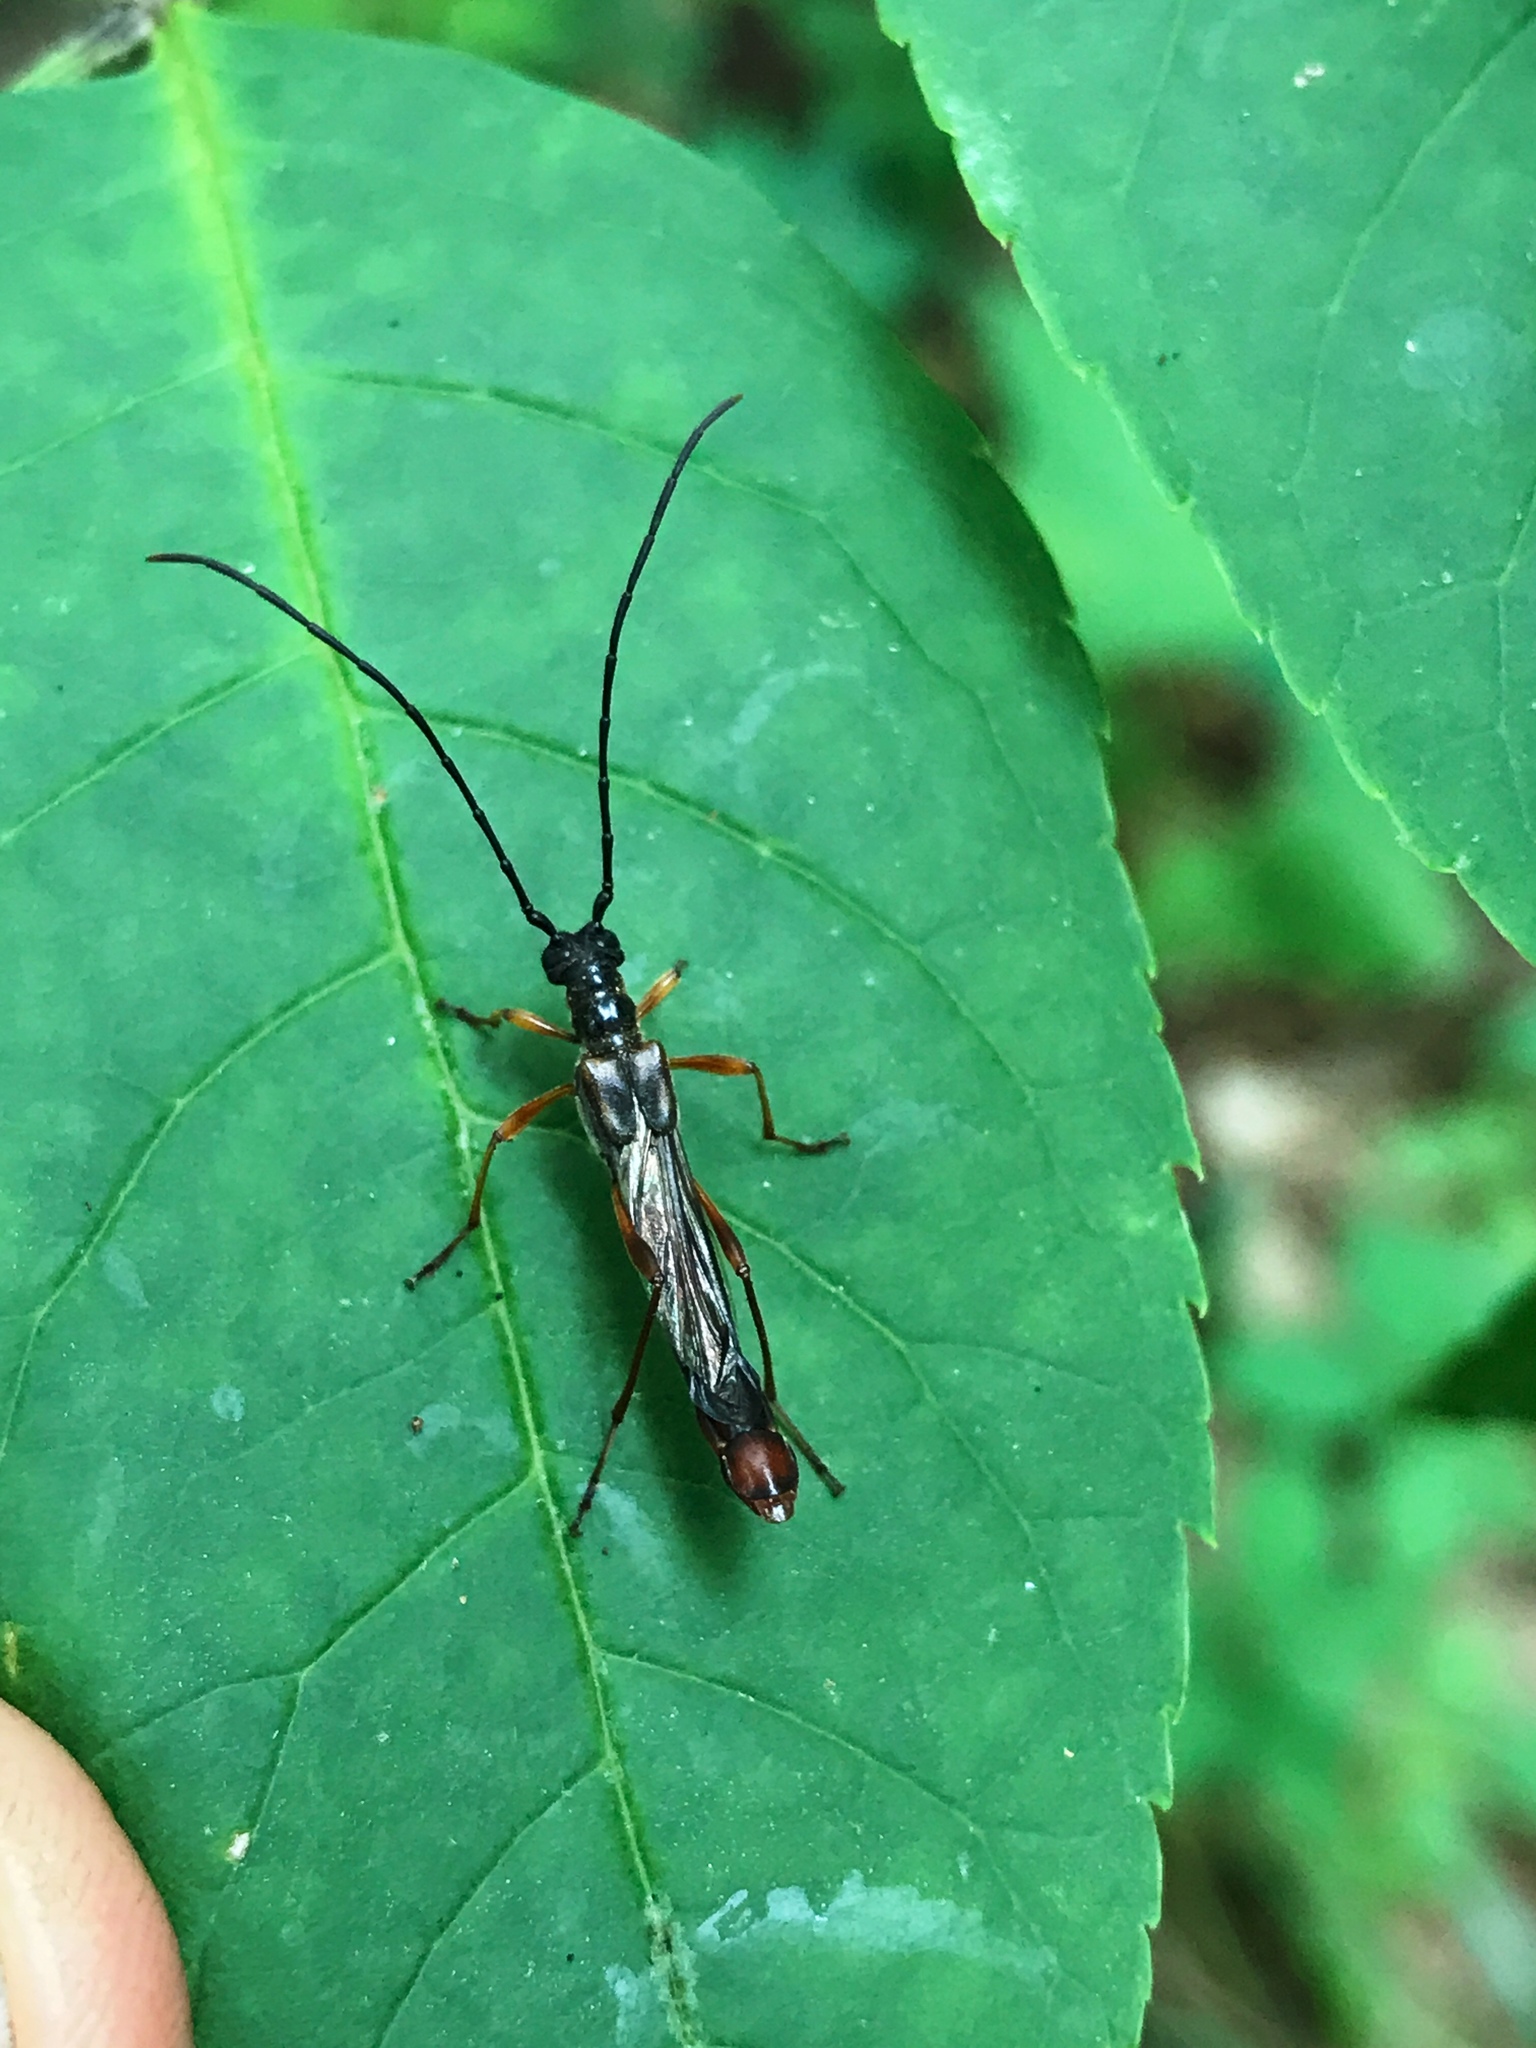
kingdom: Animalia
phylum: Arthropoda
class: Insecta
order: Coleoptera
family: Cerambycidae
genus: Necydalis
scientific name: Necydalis mellita
